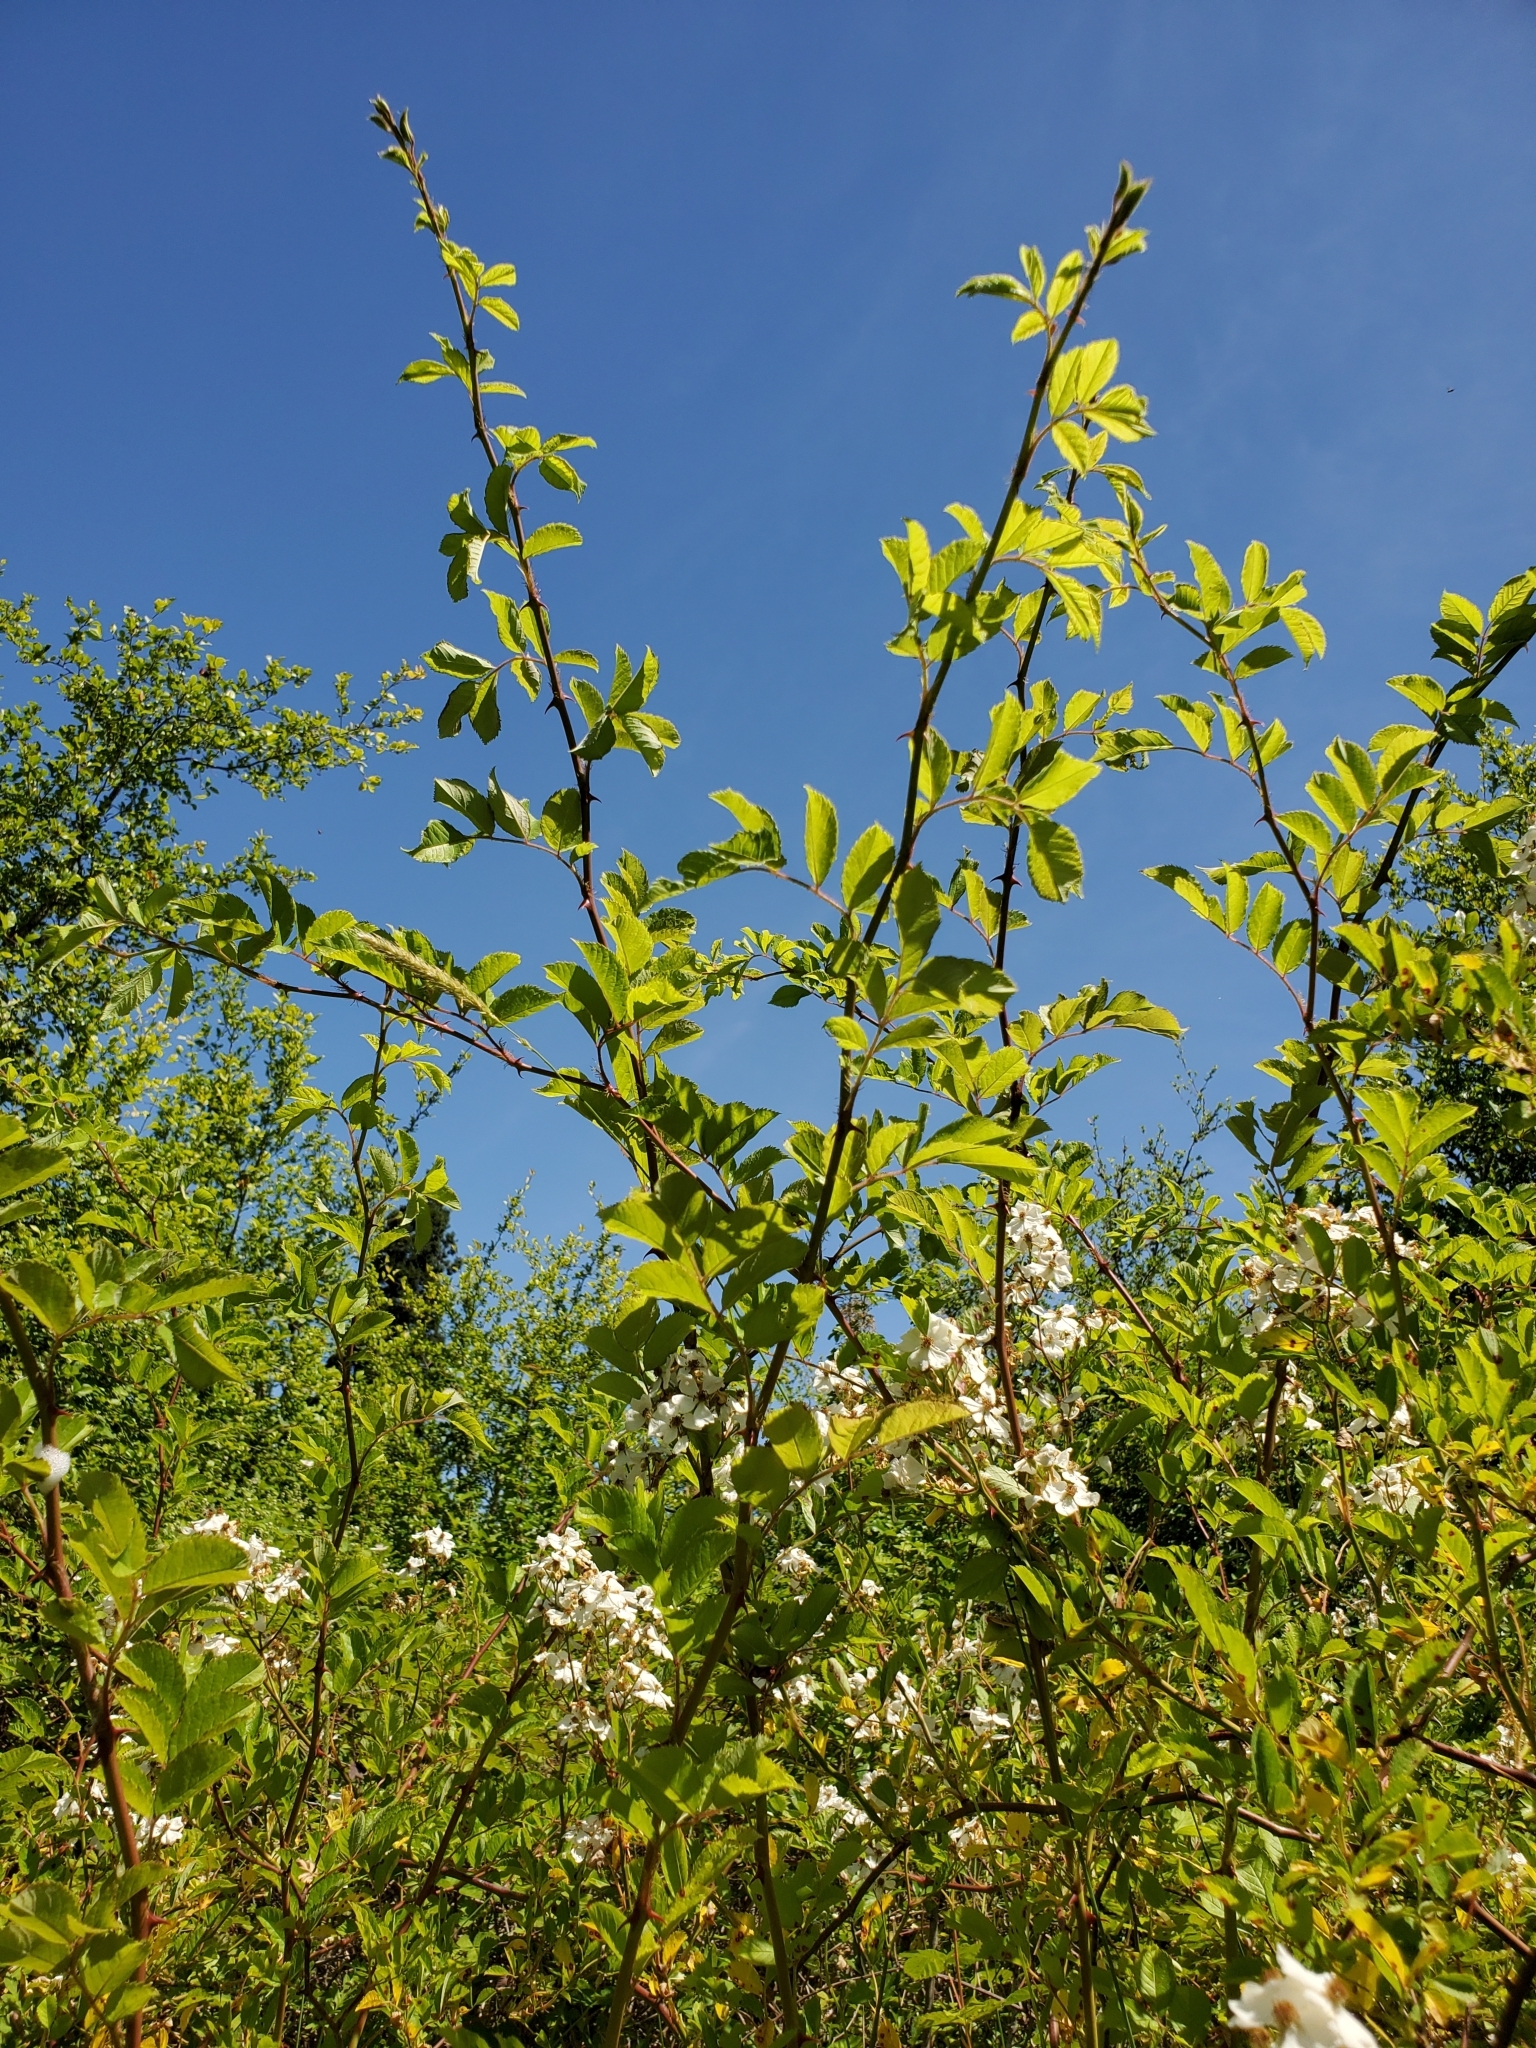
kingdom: Plantae
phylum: Tracheophyta
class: Magnoliopsida
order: Rosales
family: Rosaceae
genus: Rosa
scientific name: Rosa multiflora
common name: Multiflora rose
